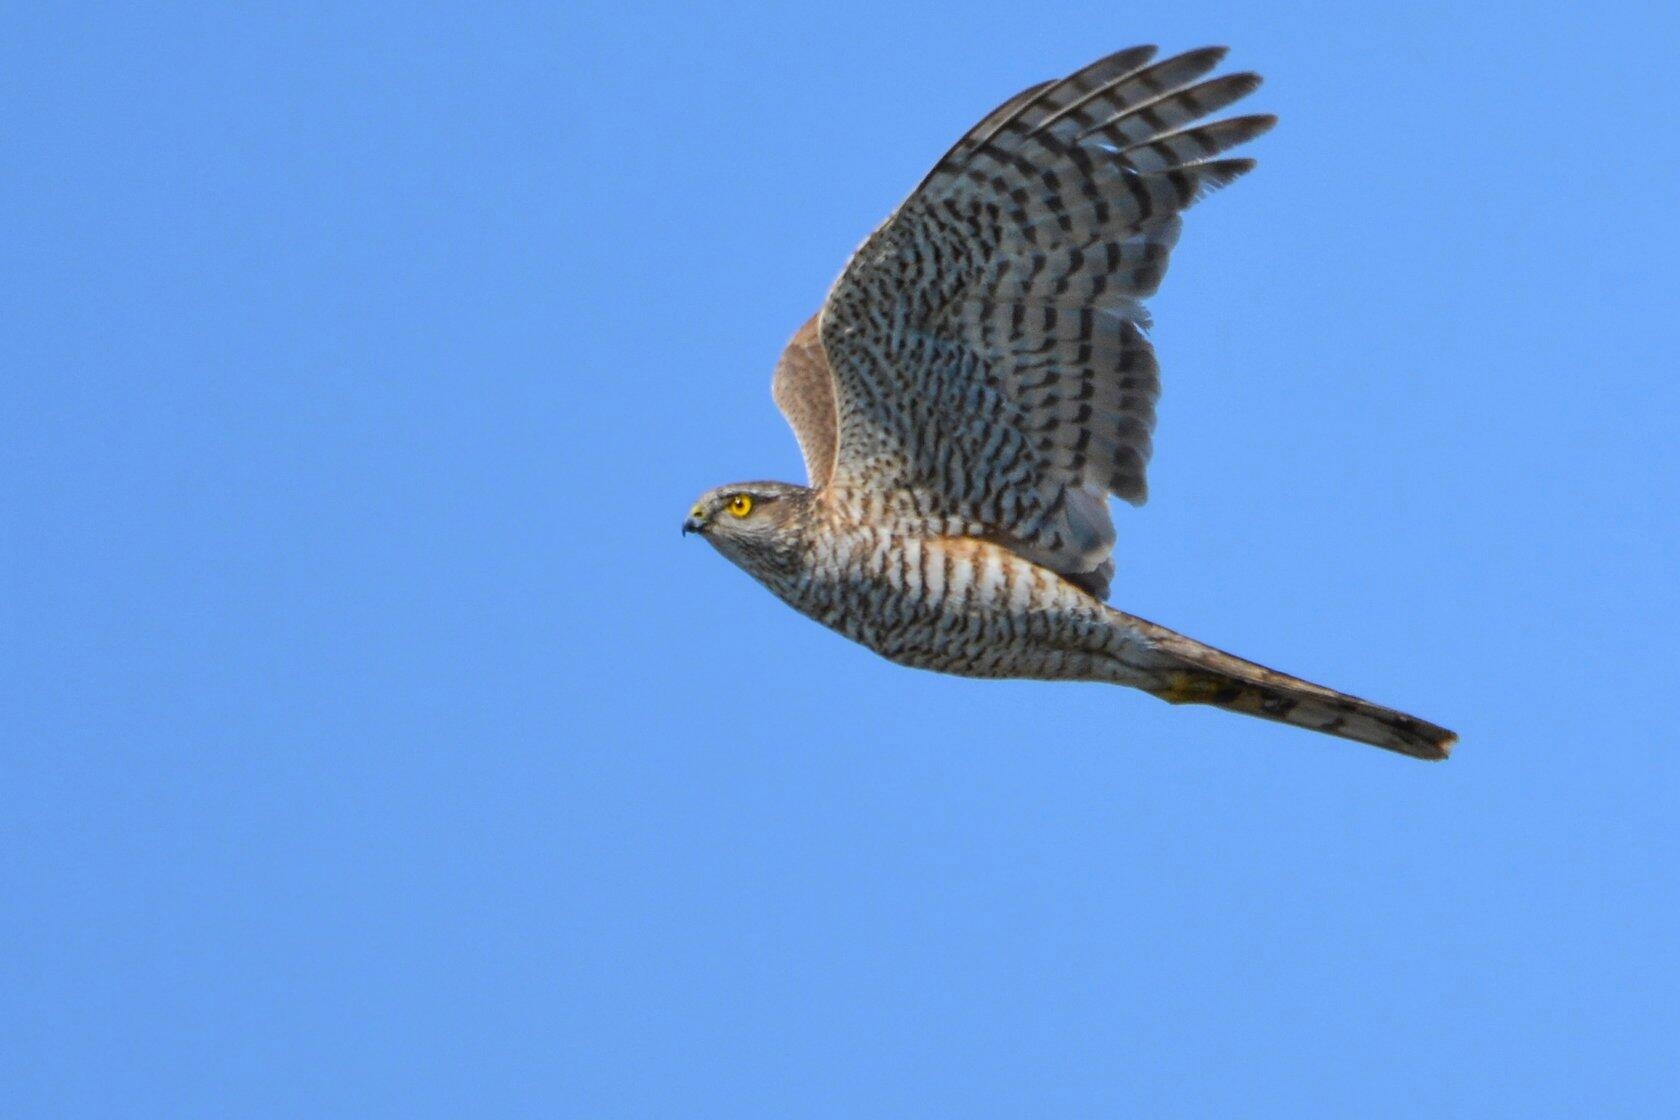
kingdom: Animalia
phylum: Chordata
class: Aves
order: Accipitriformes
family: Accipitridae
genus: Accipiter
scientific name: Accipiter nisus
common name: Eurasian sparrowhawk
